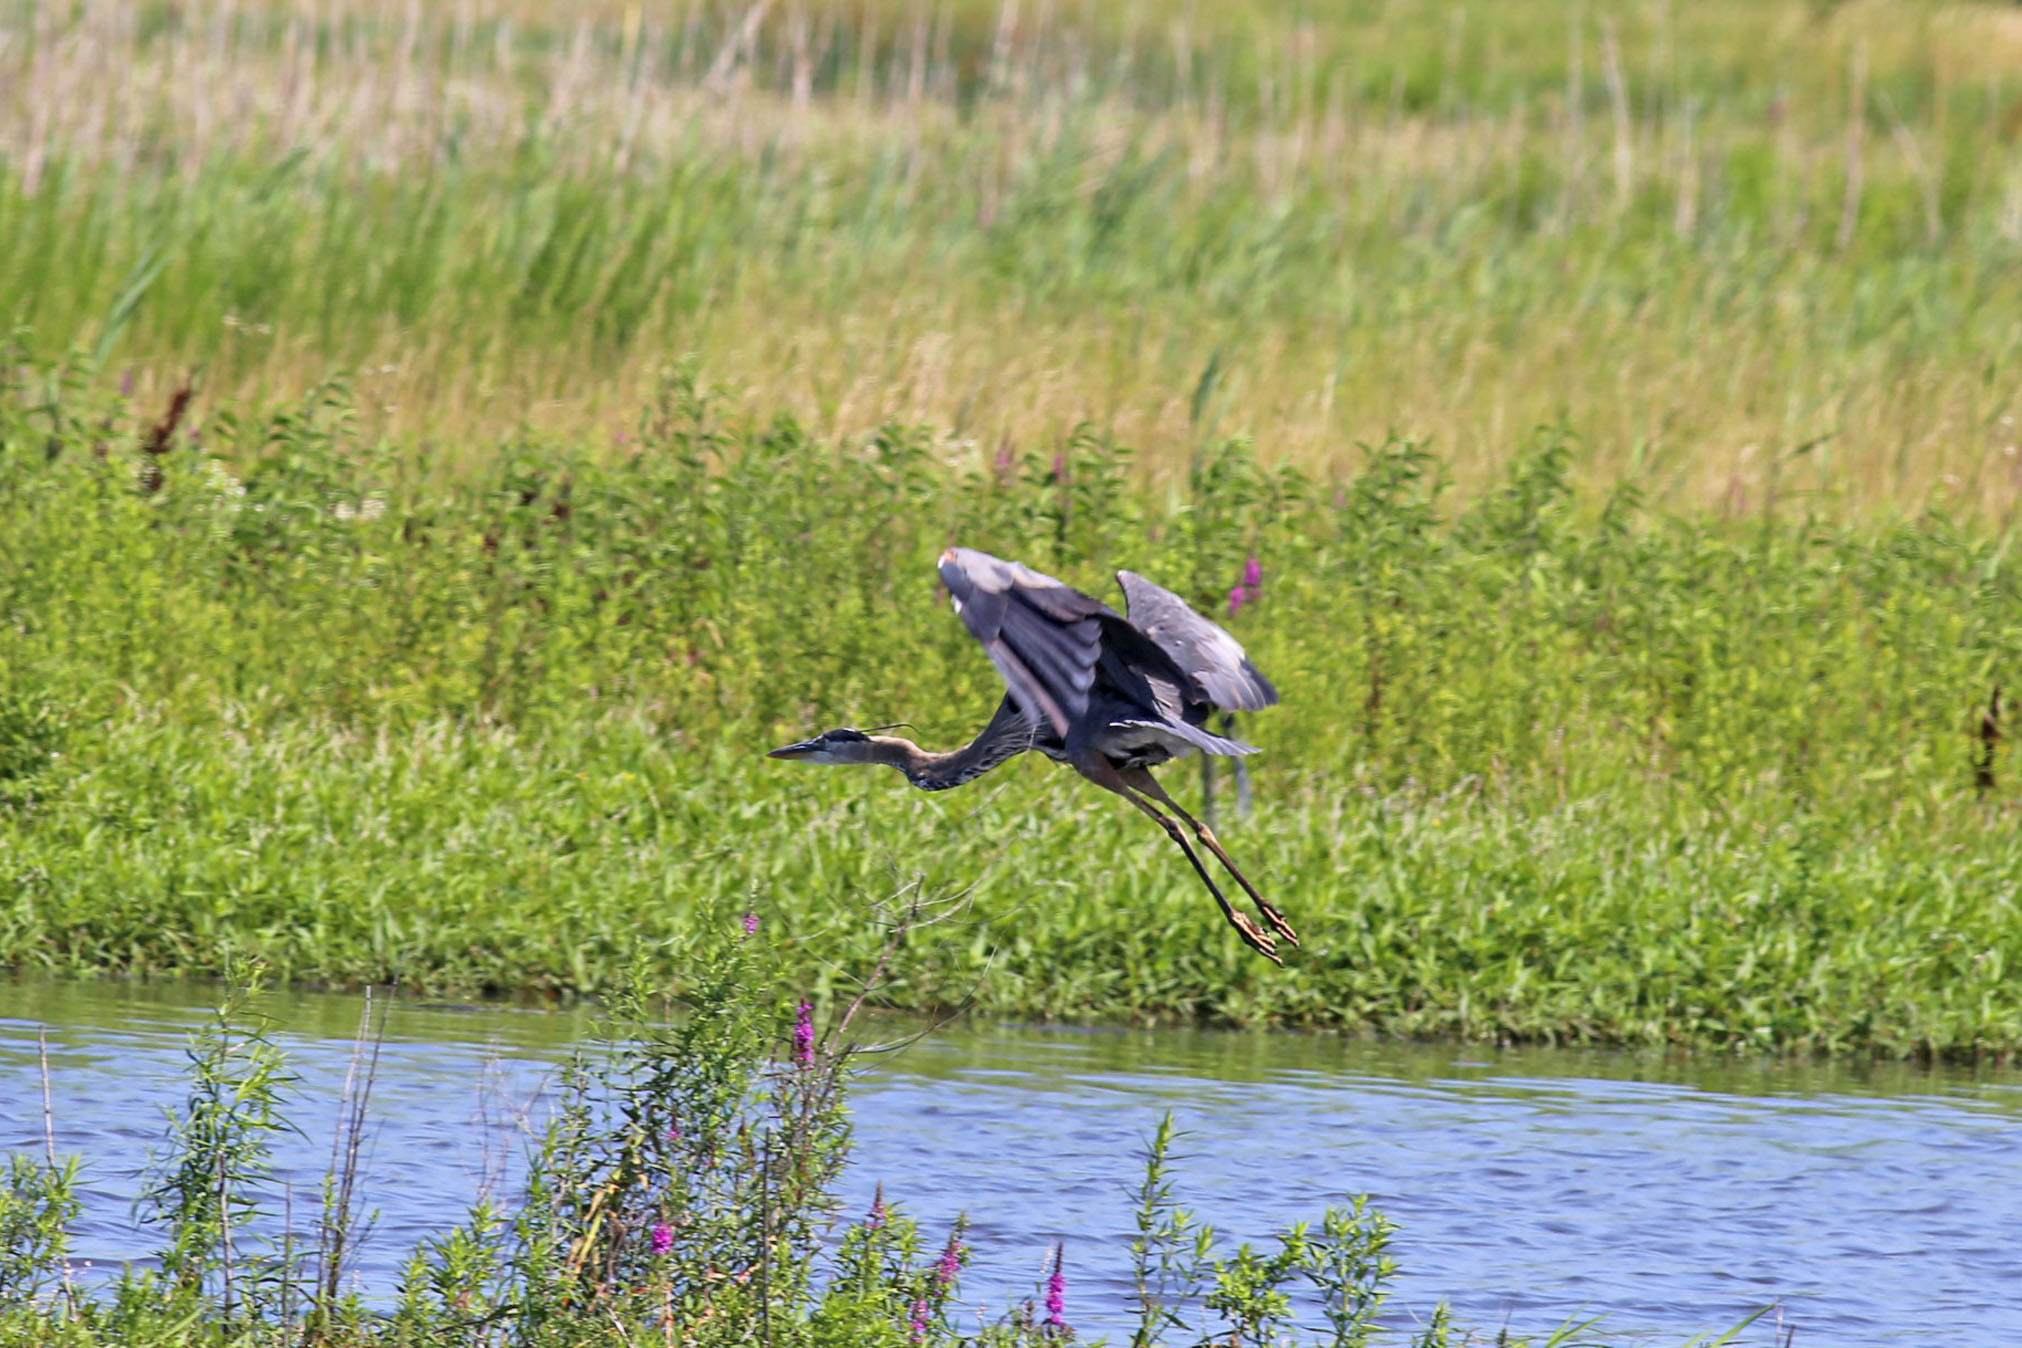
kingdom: Animalia
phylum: Chordata
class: Aves
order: Pelecaniformes
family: Ardeidae
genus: Ardea
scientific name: Ardea herodias
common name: Great blue heron
